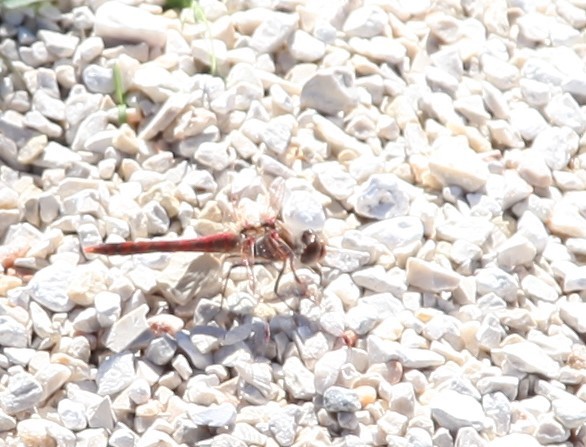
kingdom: Animalia
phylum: Arthropoda
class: Insecta
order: Odonata
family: Libellulidae
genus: Sympetrum
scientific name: Sympetrum corruptum
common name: Variegated meadowhawk
